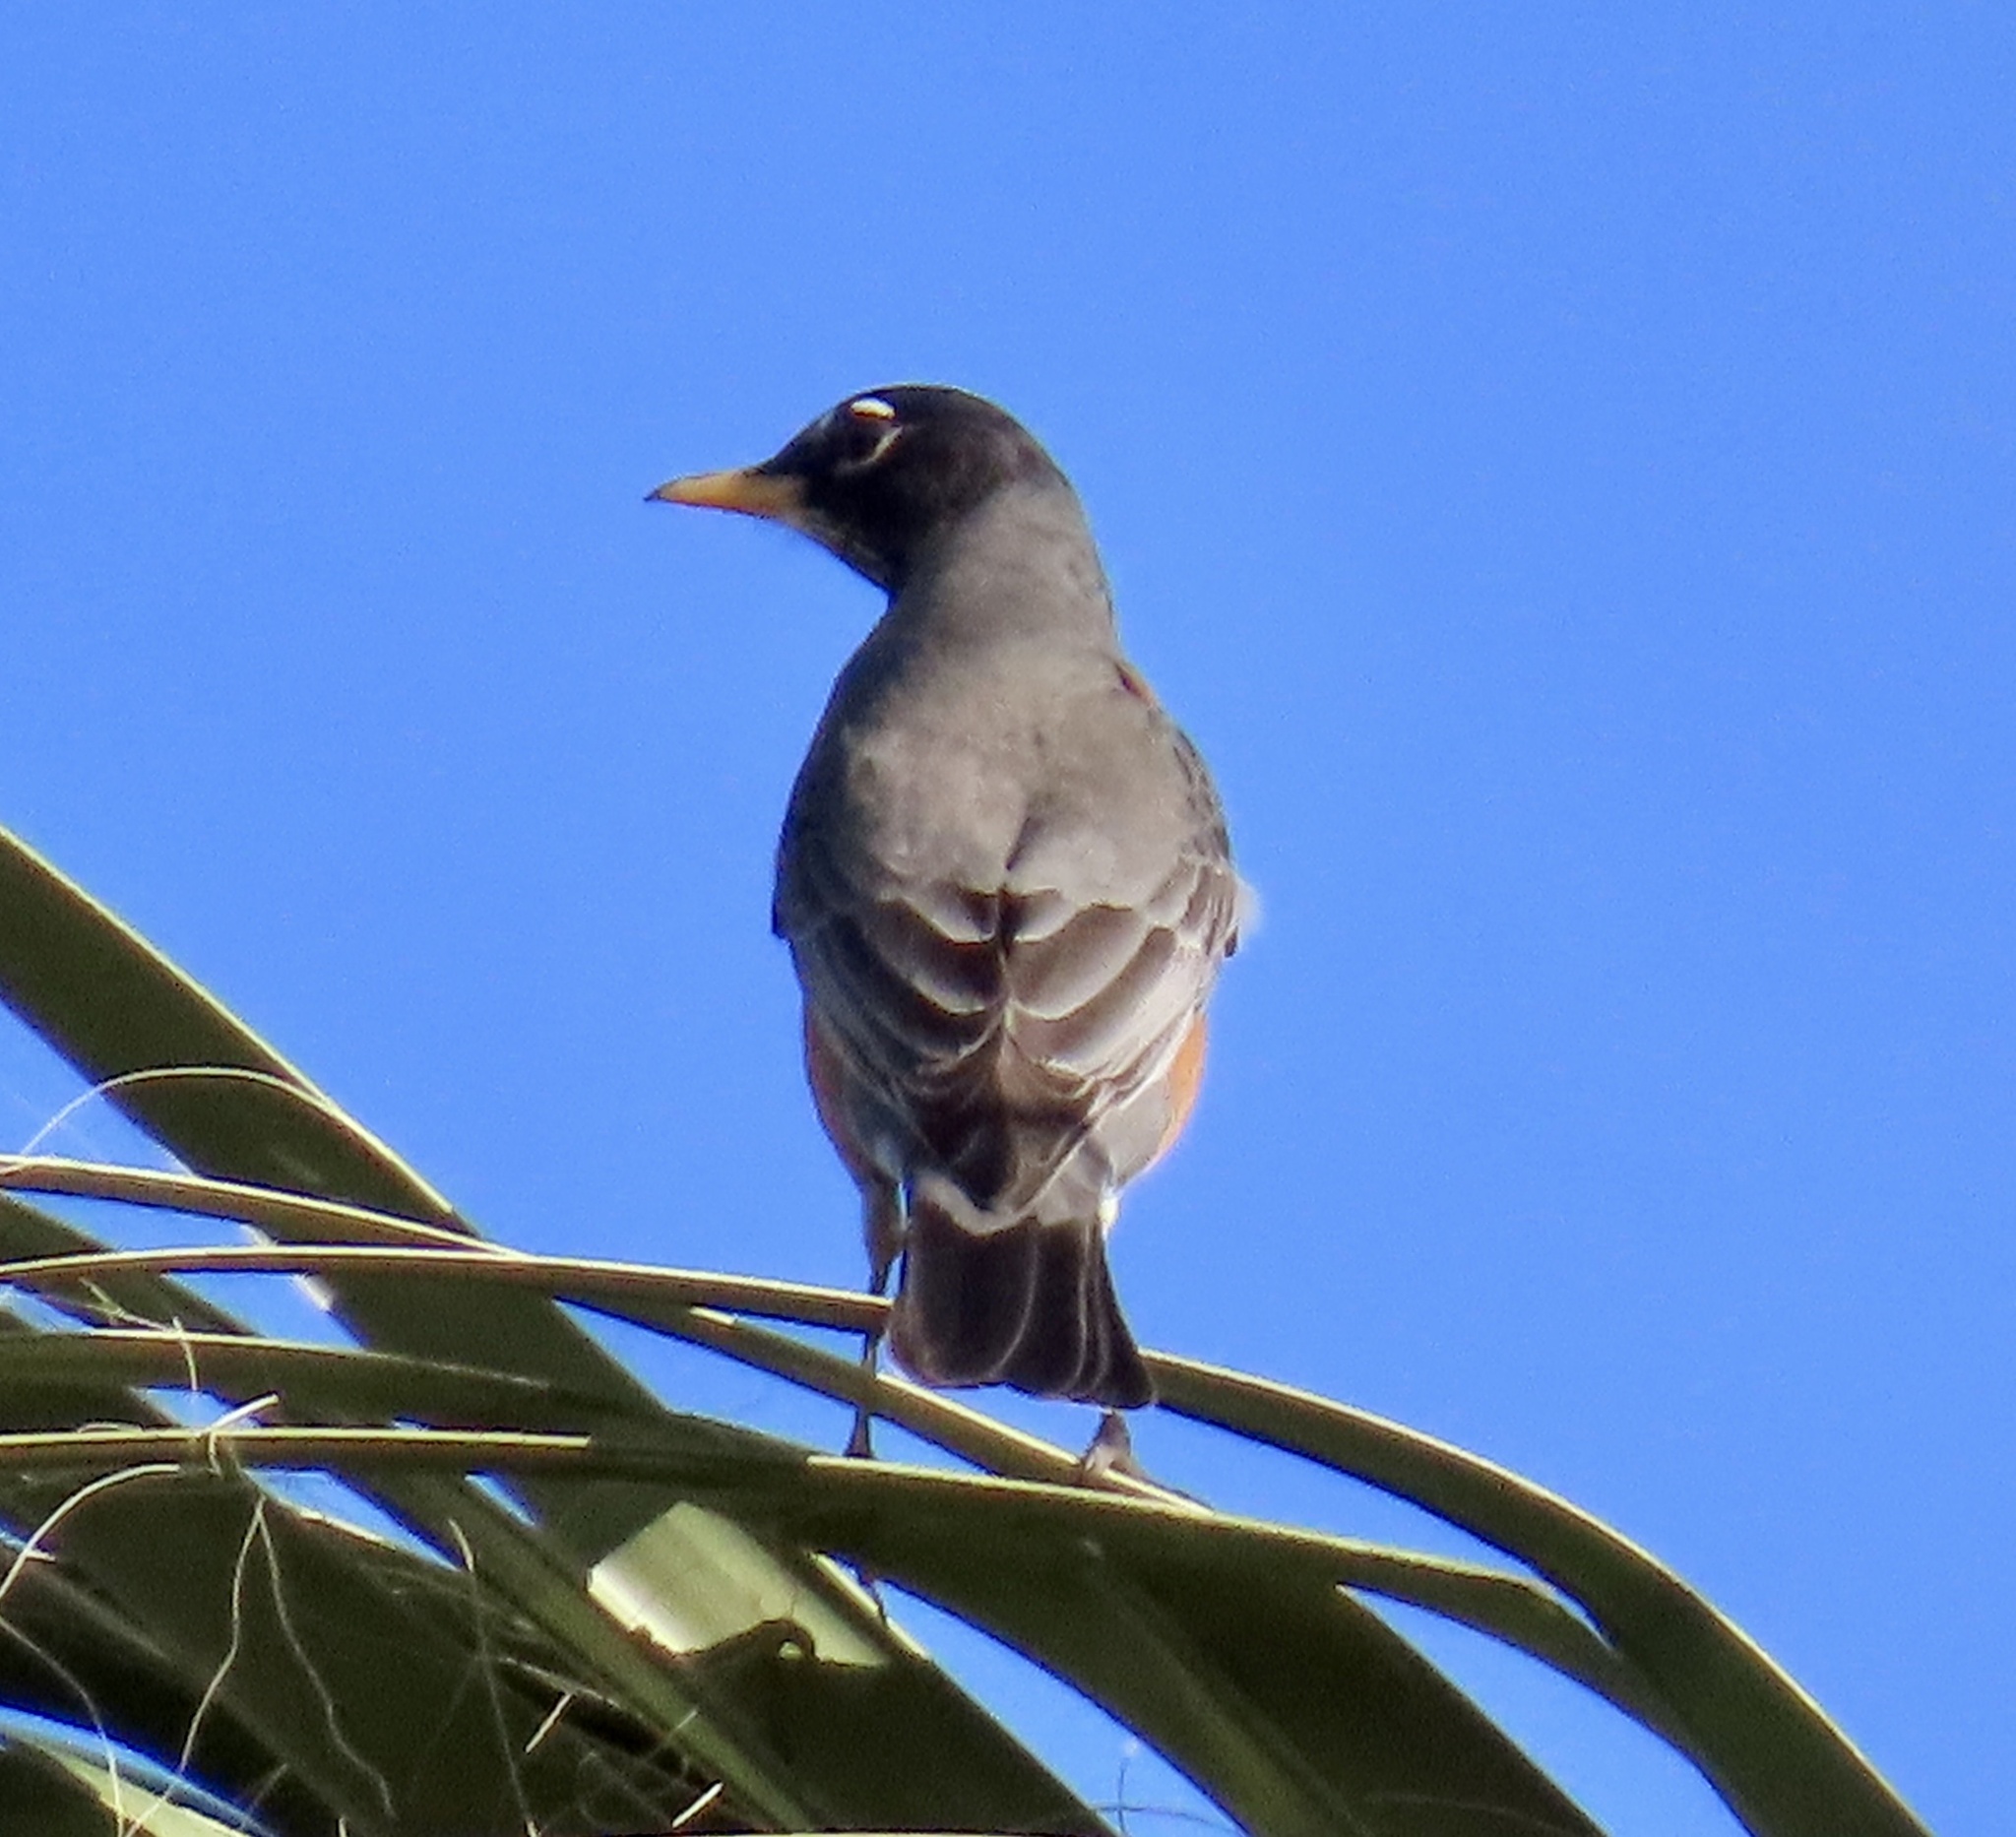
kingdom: Animalia
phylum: Chordata
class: Aves
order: Passeriformes
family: Turdidae
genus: Turdus
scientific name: Turdus migratorius
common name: American robin
